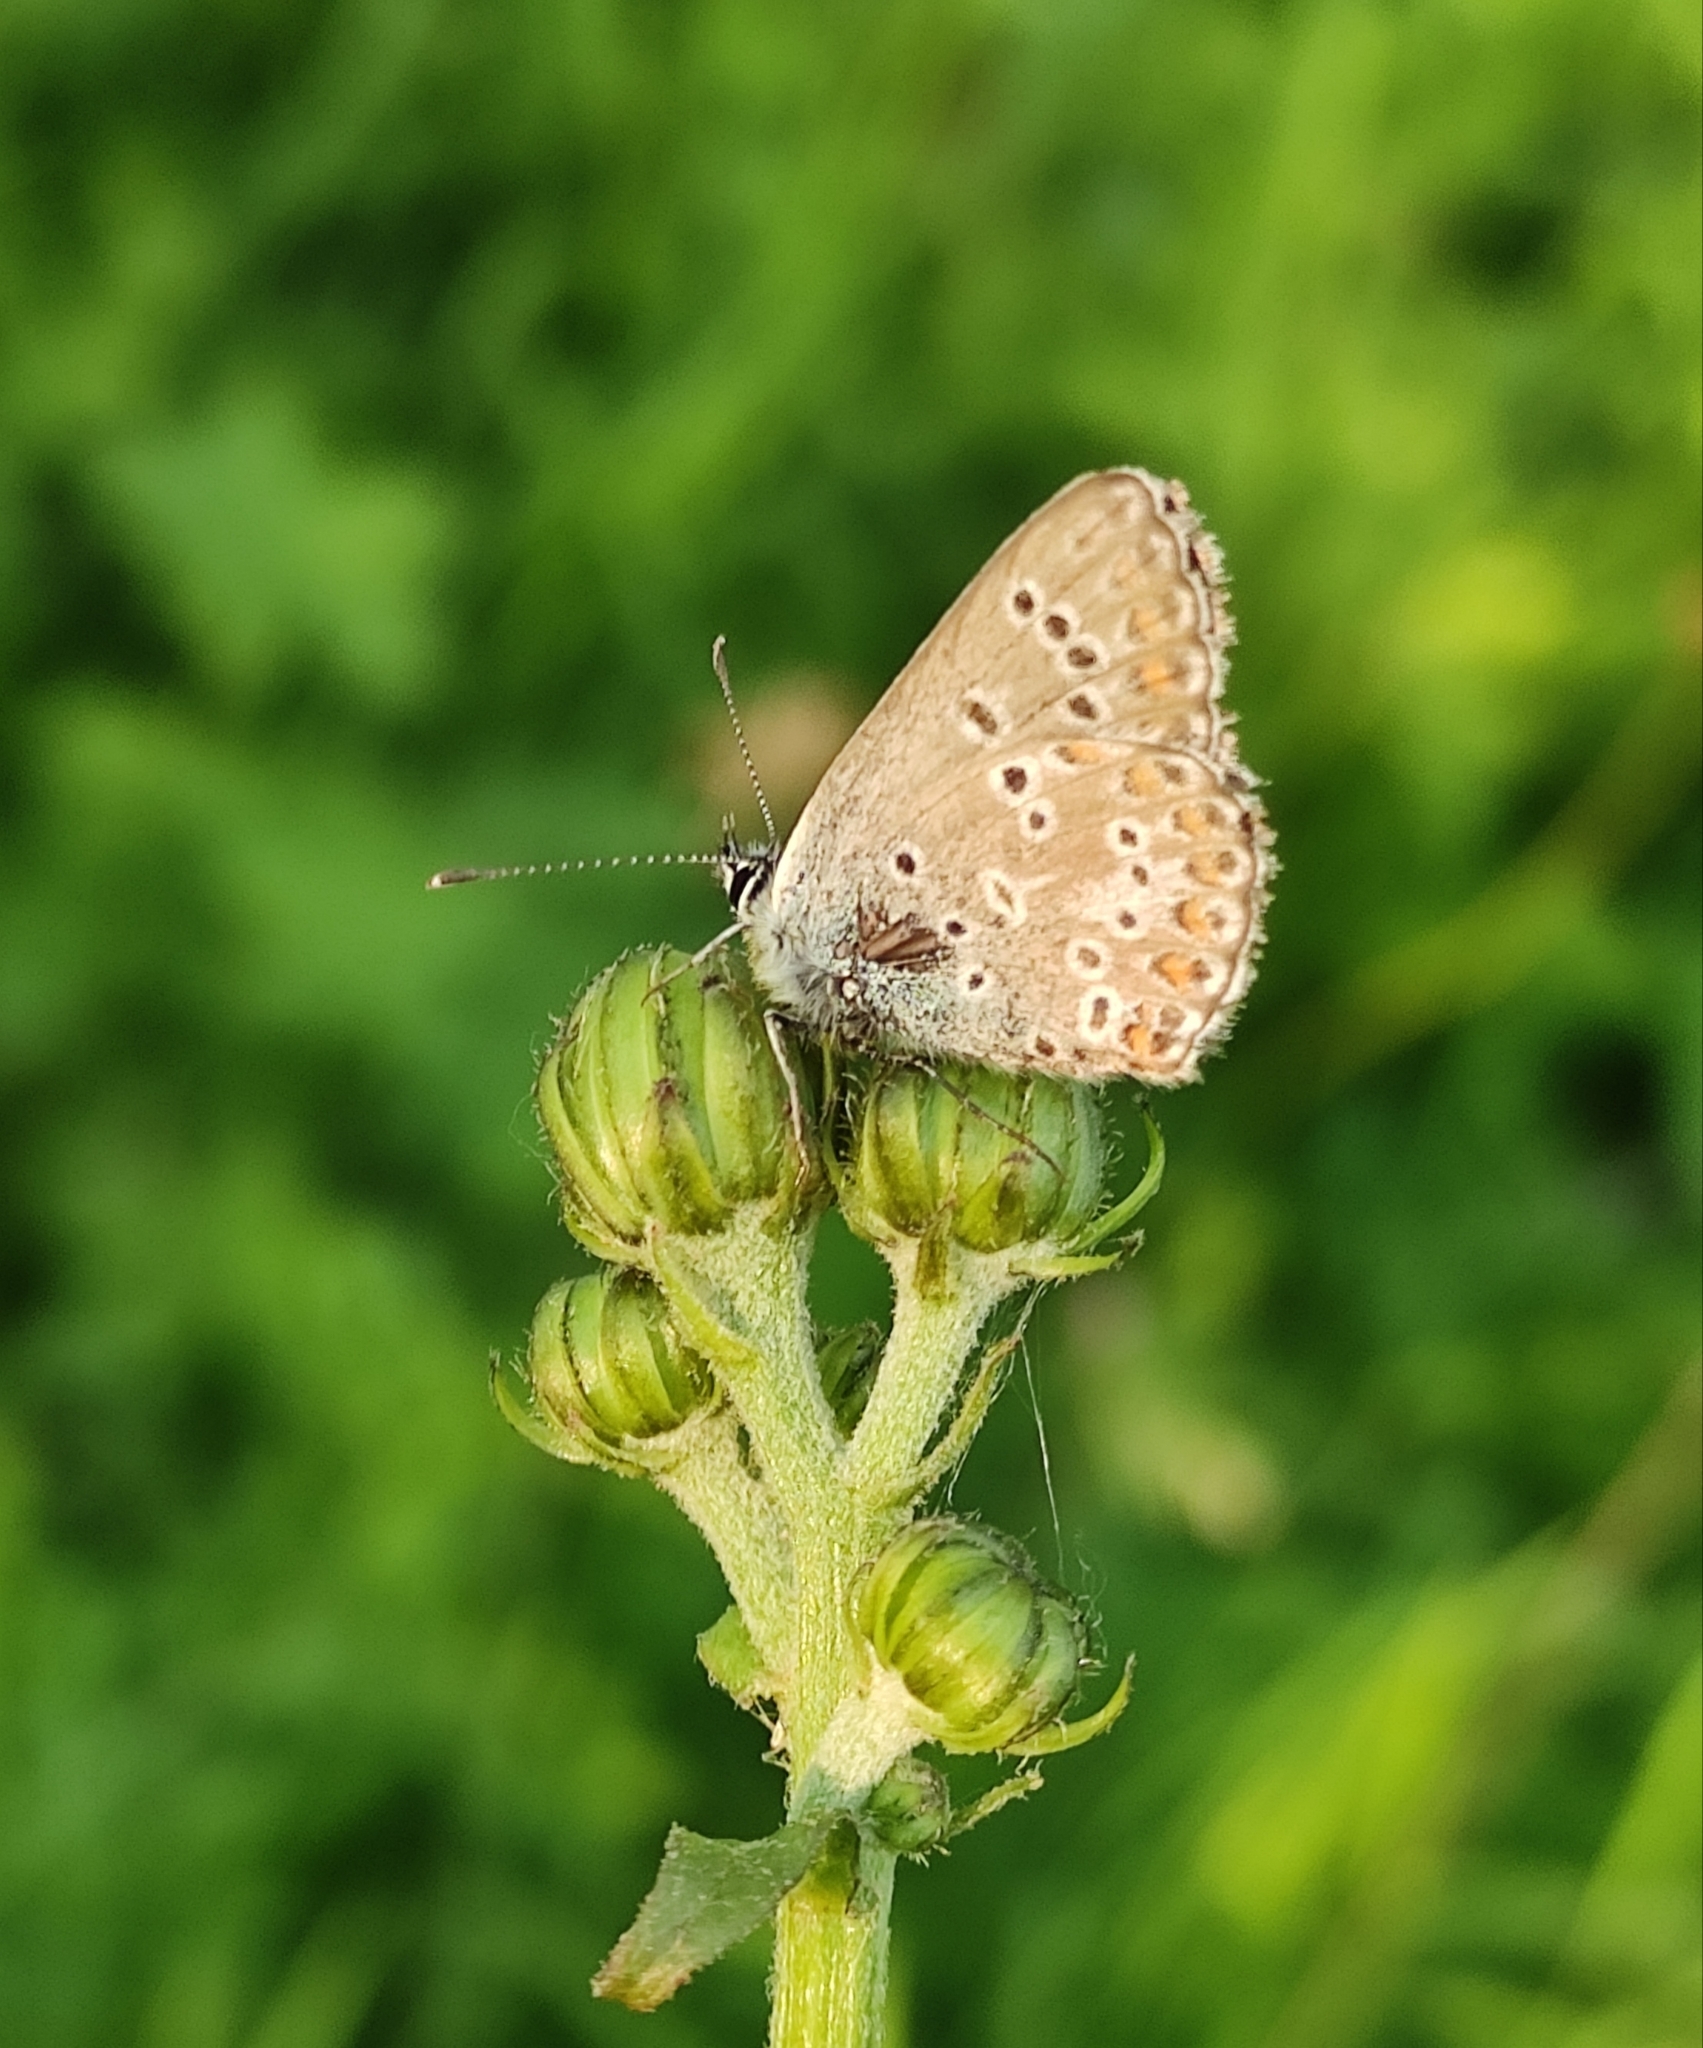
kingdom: Animalia
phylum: Arthropoda
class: Insecta
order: Lepidoptera
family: Lycaenidae
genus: Aricia
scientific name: Aricia artaxerxes
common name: Northern brown argus
